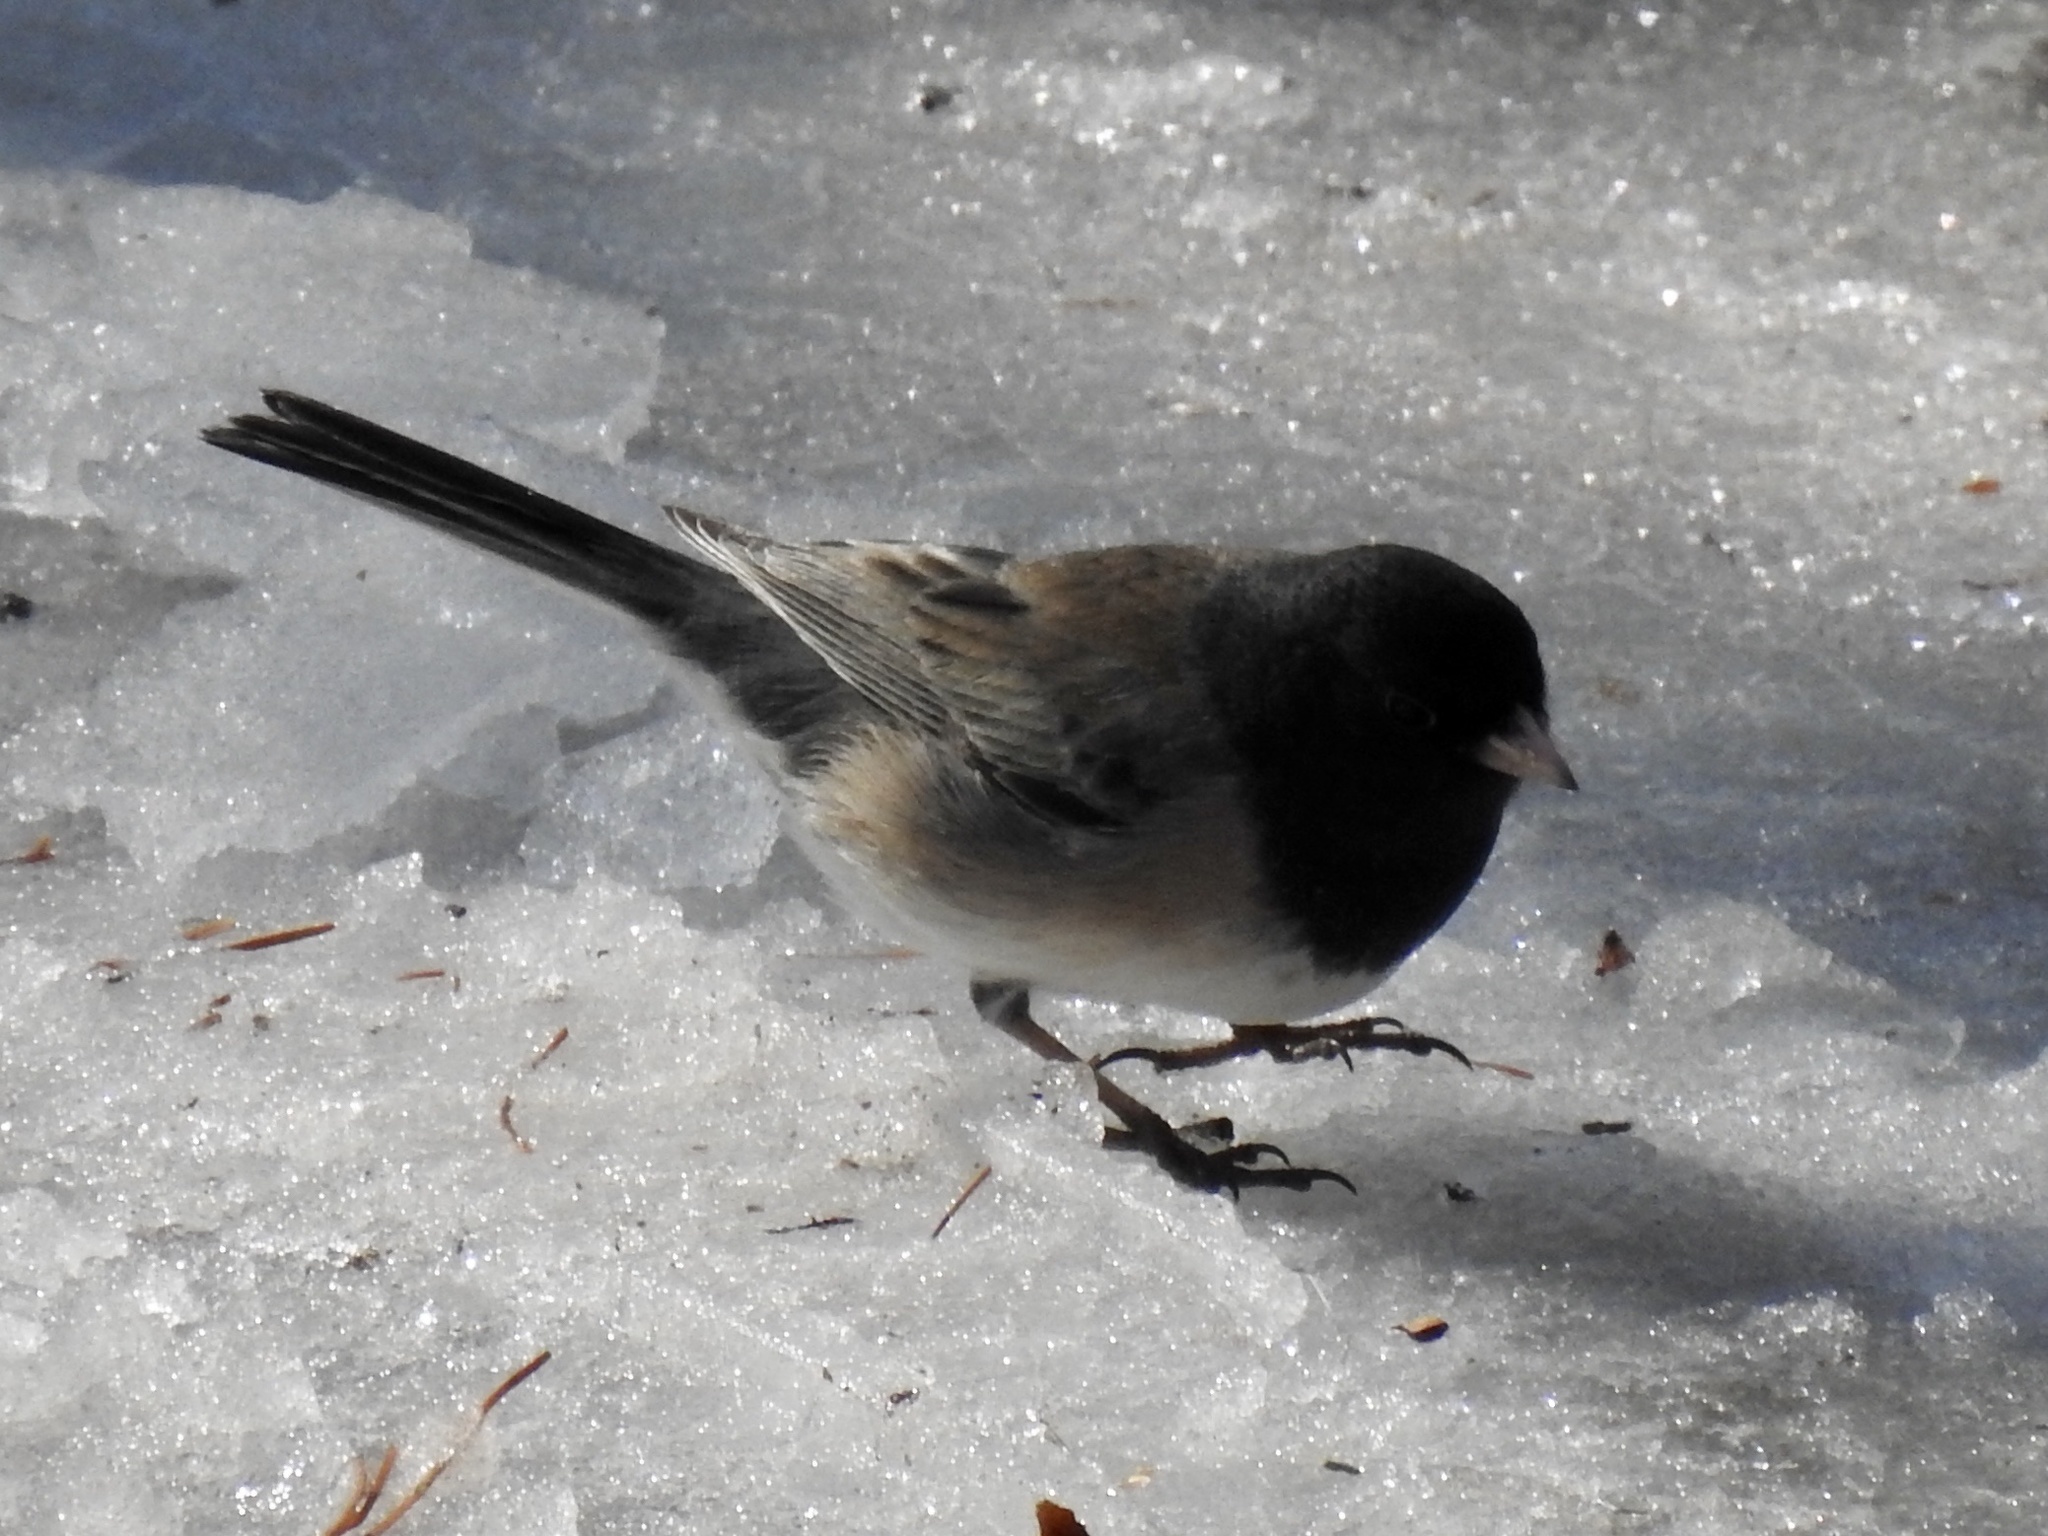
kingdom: Animalia
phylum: Chordata
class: Aves
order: Passeriformes
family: Passerellidae
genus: Junco
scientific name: Junco hyemalis
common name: Dark-eyed junco
